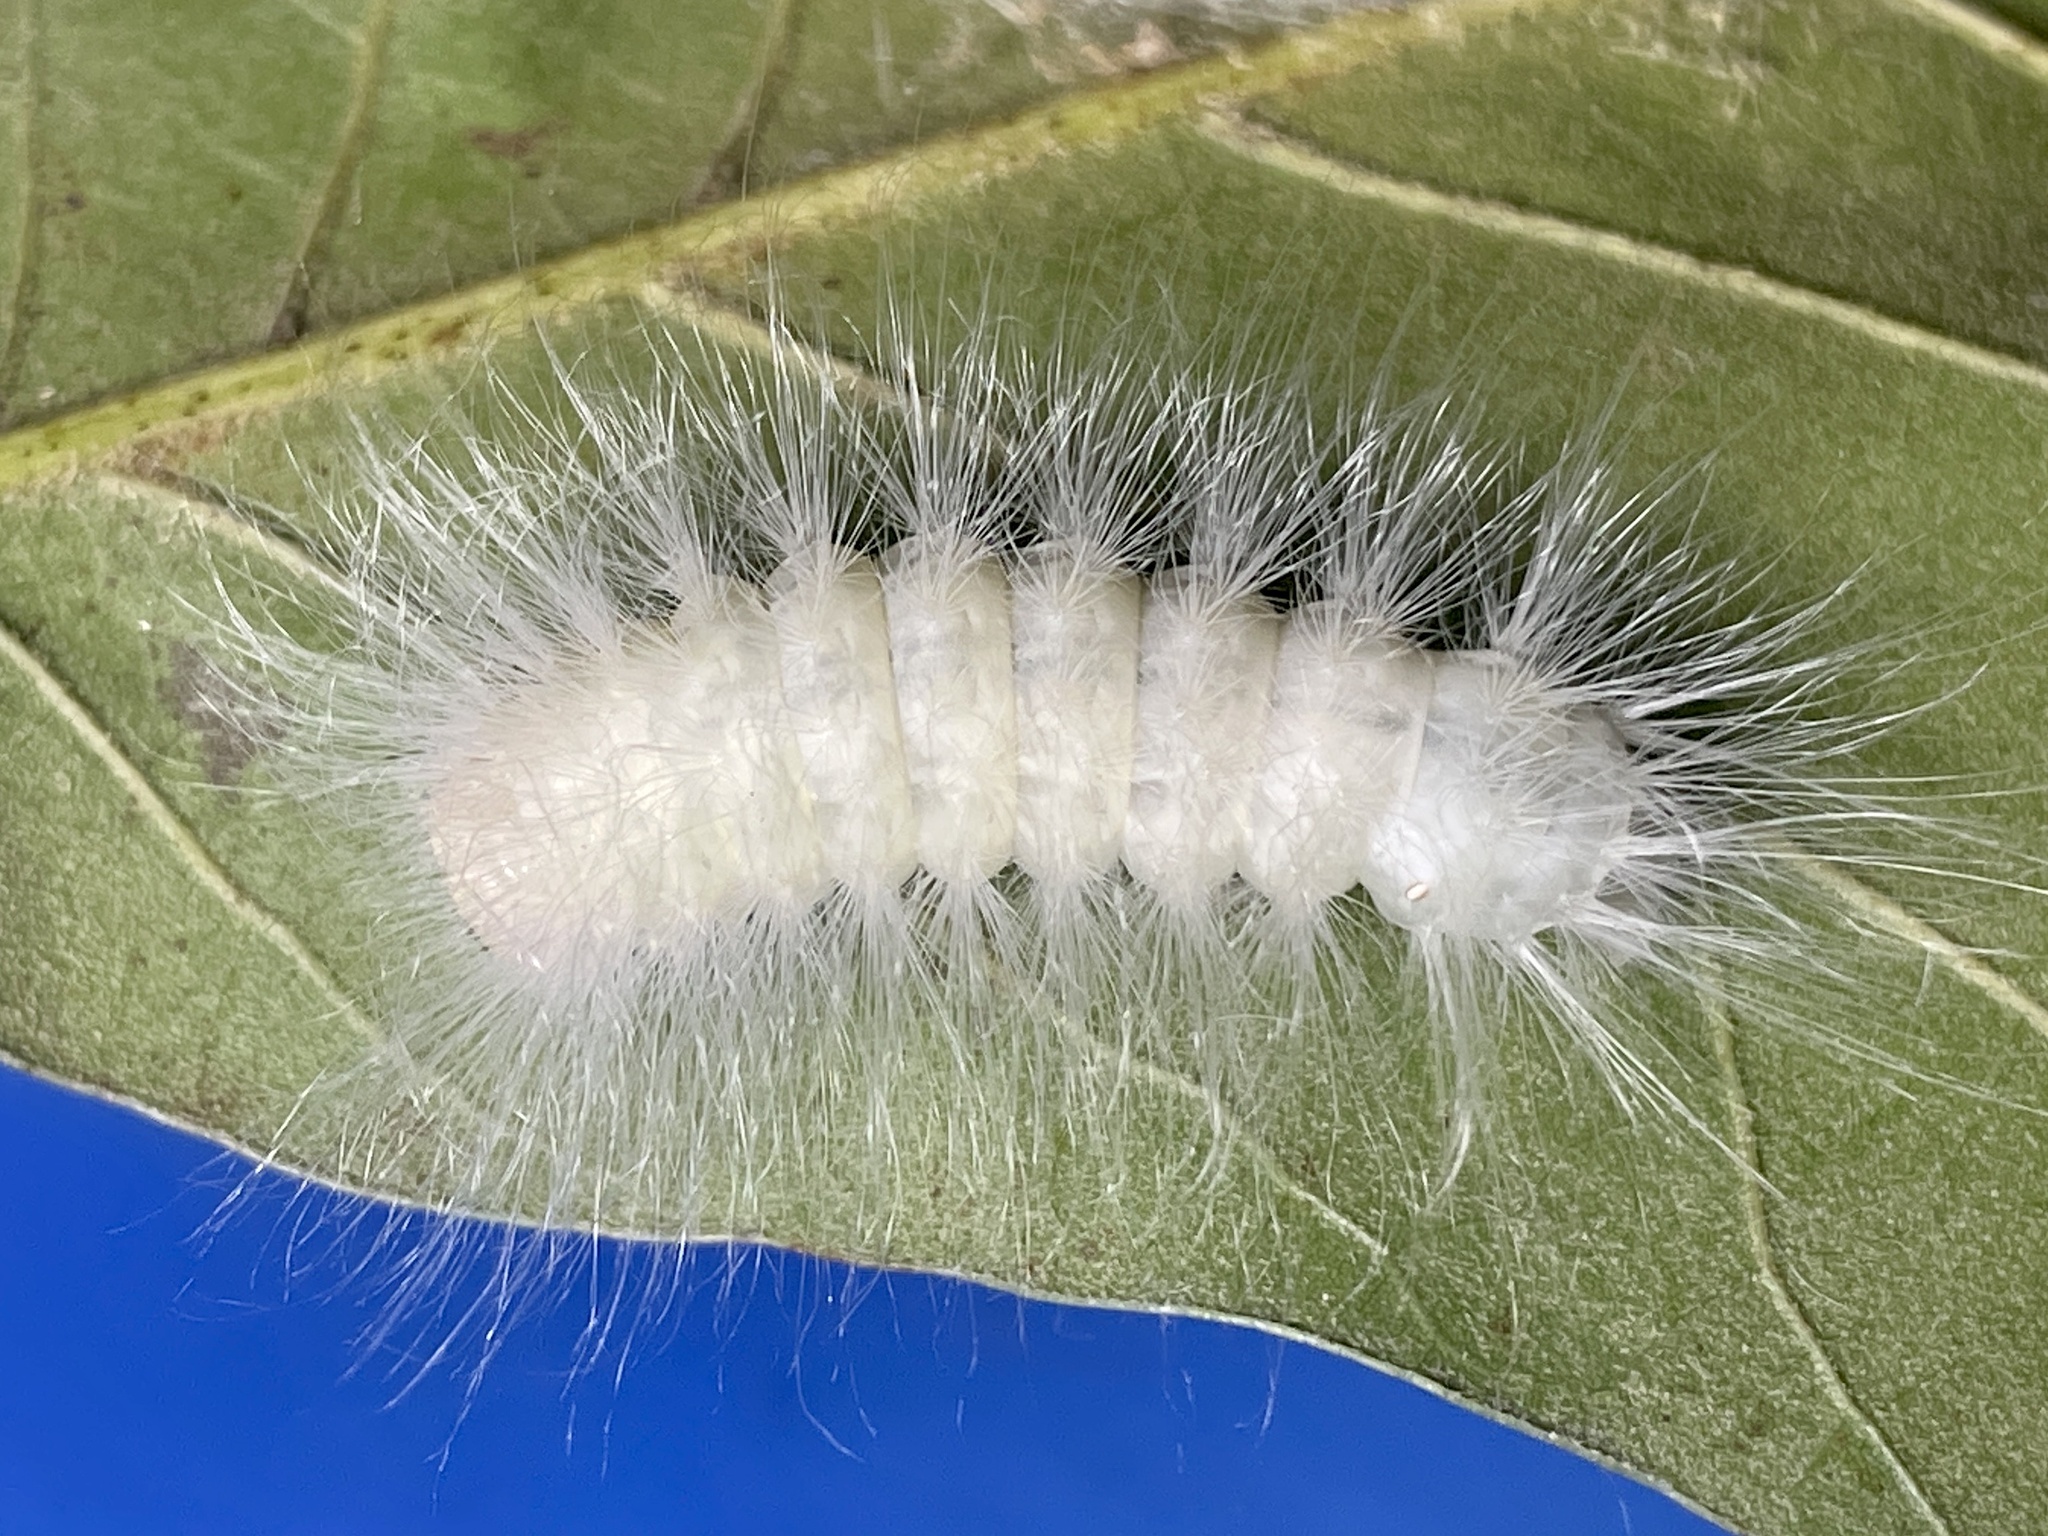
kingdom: Animalia
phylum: Arthropoda
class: Insecta
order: Lepidoptera
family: Noctuidae
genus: Charadra
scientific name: Charadra deridens
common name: Marbled tuffet
